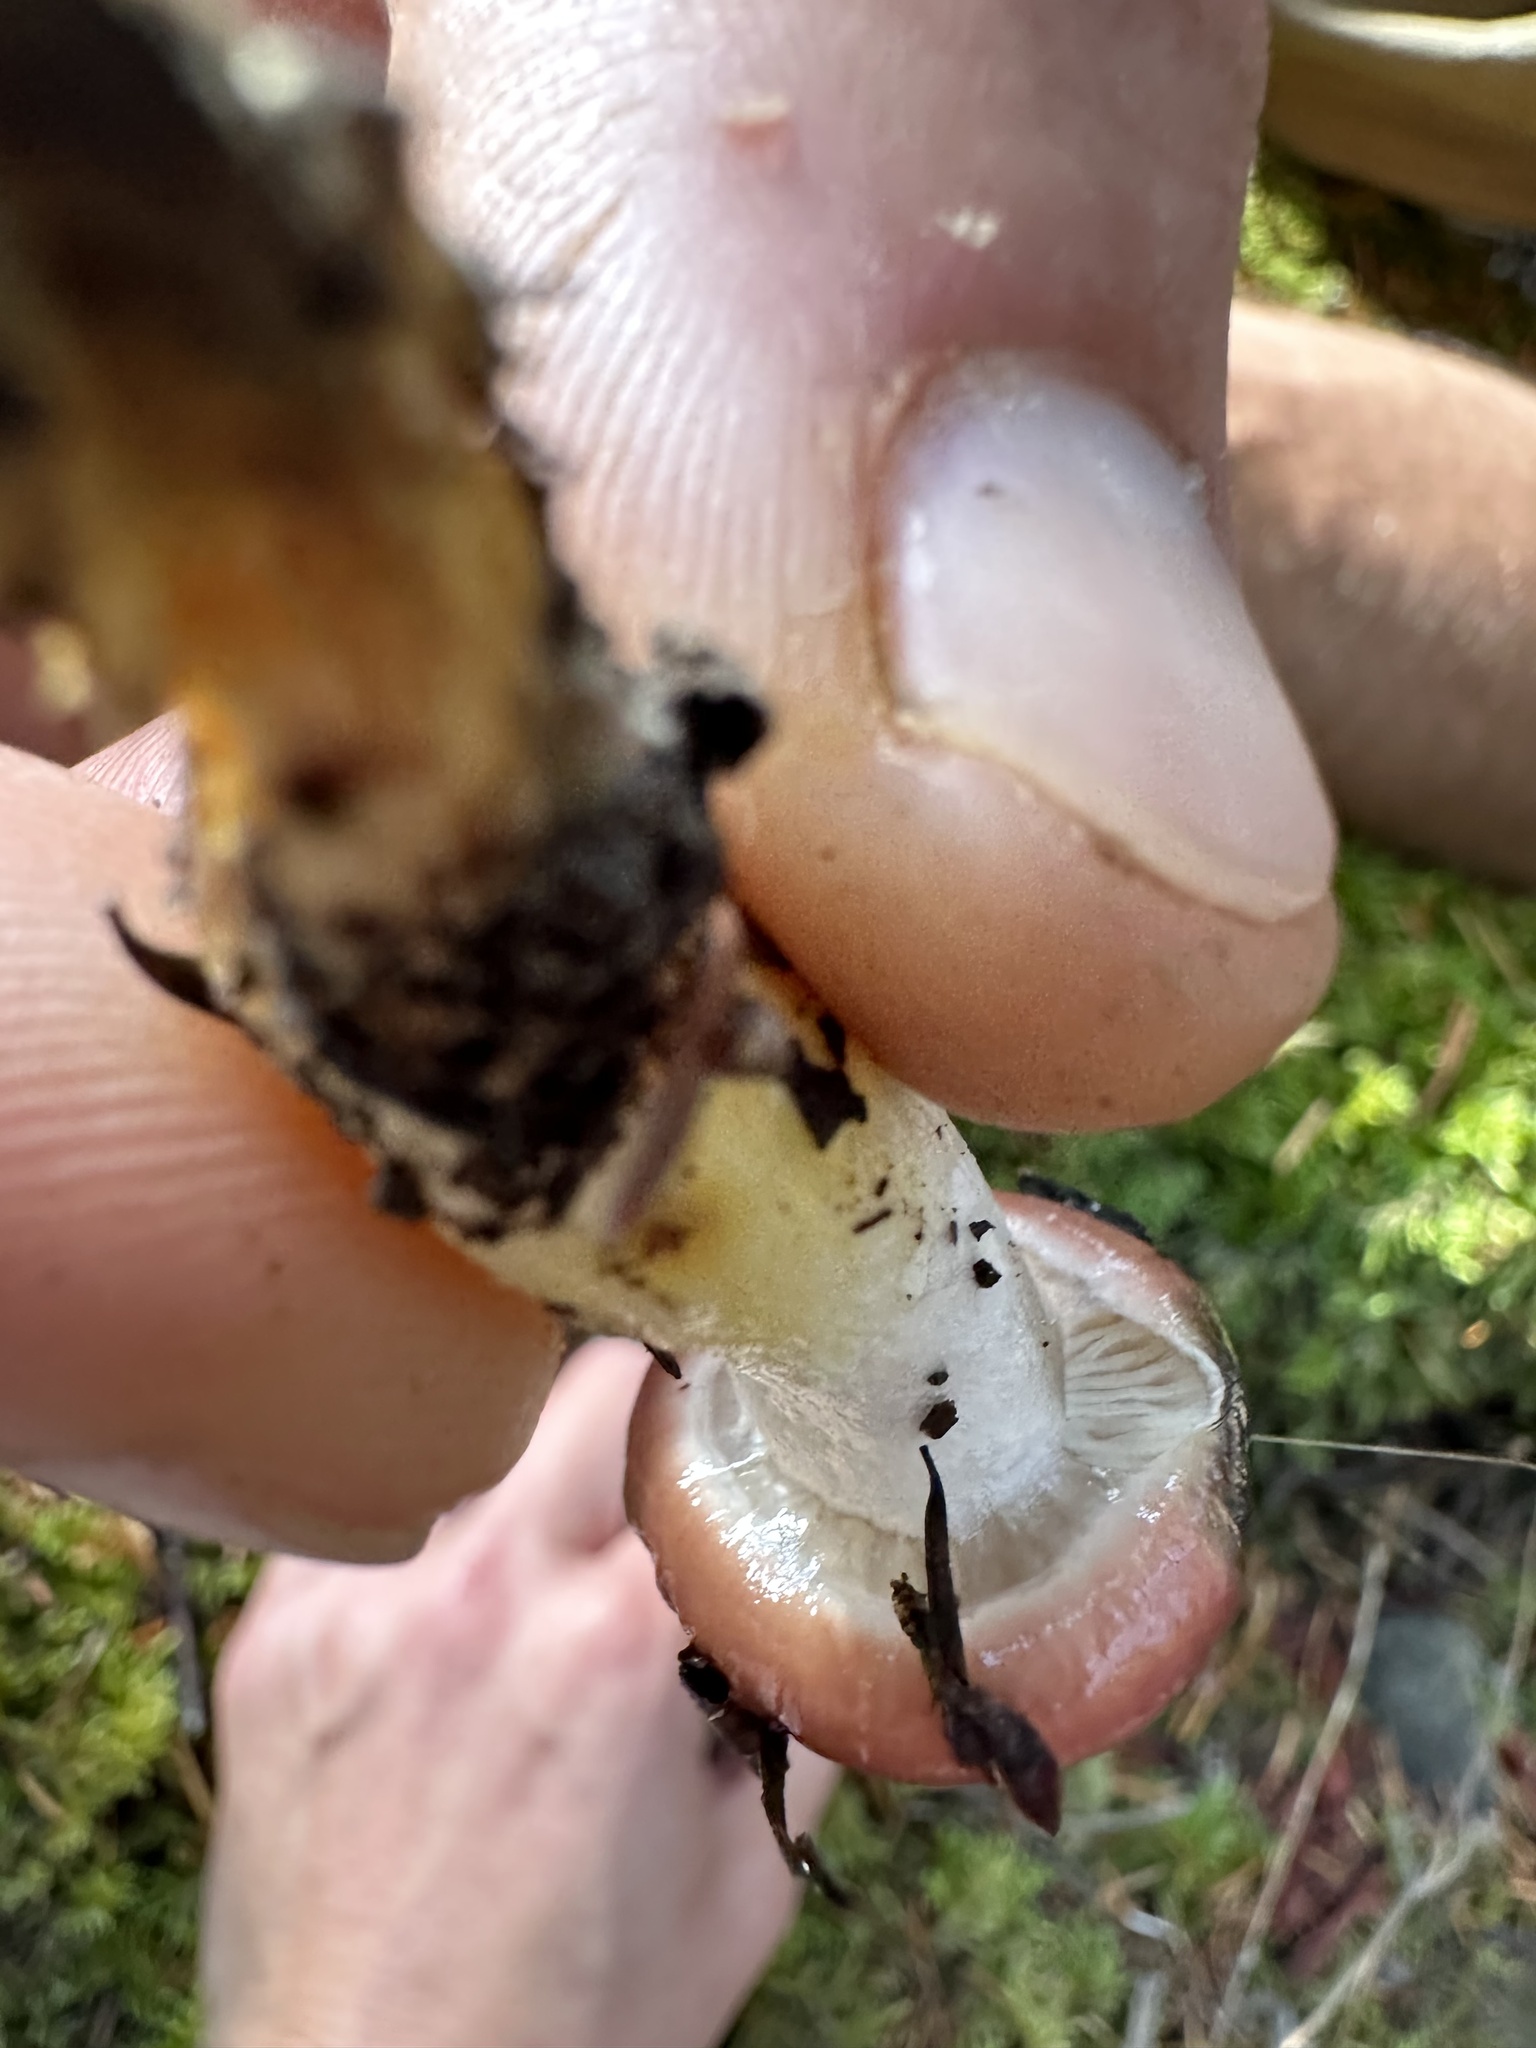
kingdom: Fungi
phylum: Basidiomycota
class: Agaricomycetes
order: Boletales
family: Gomphidiaceae
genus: Gomphidius
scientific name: Gomphidius subroseus
